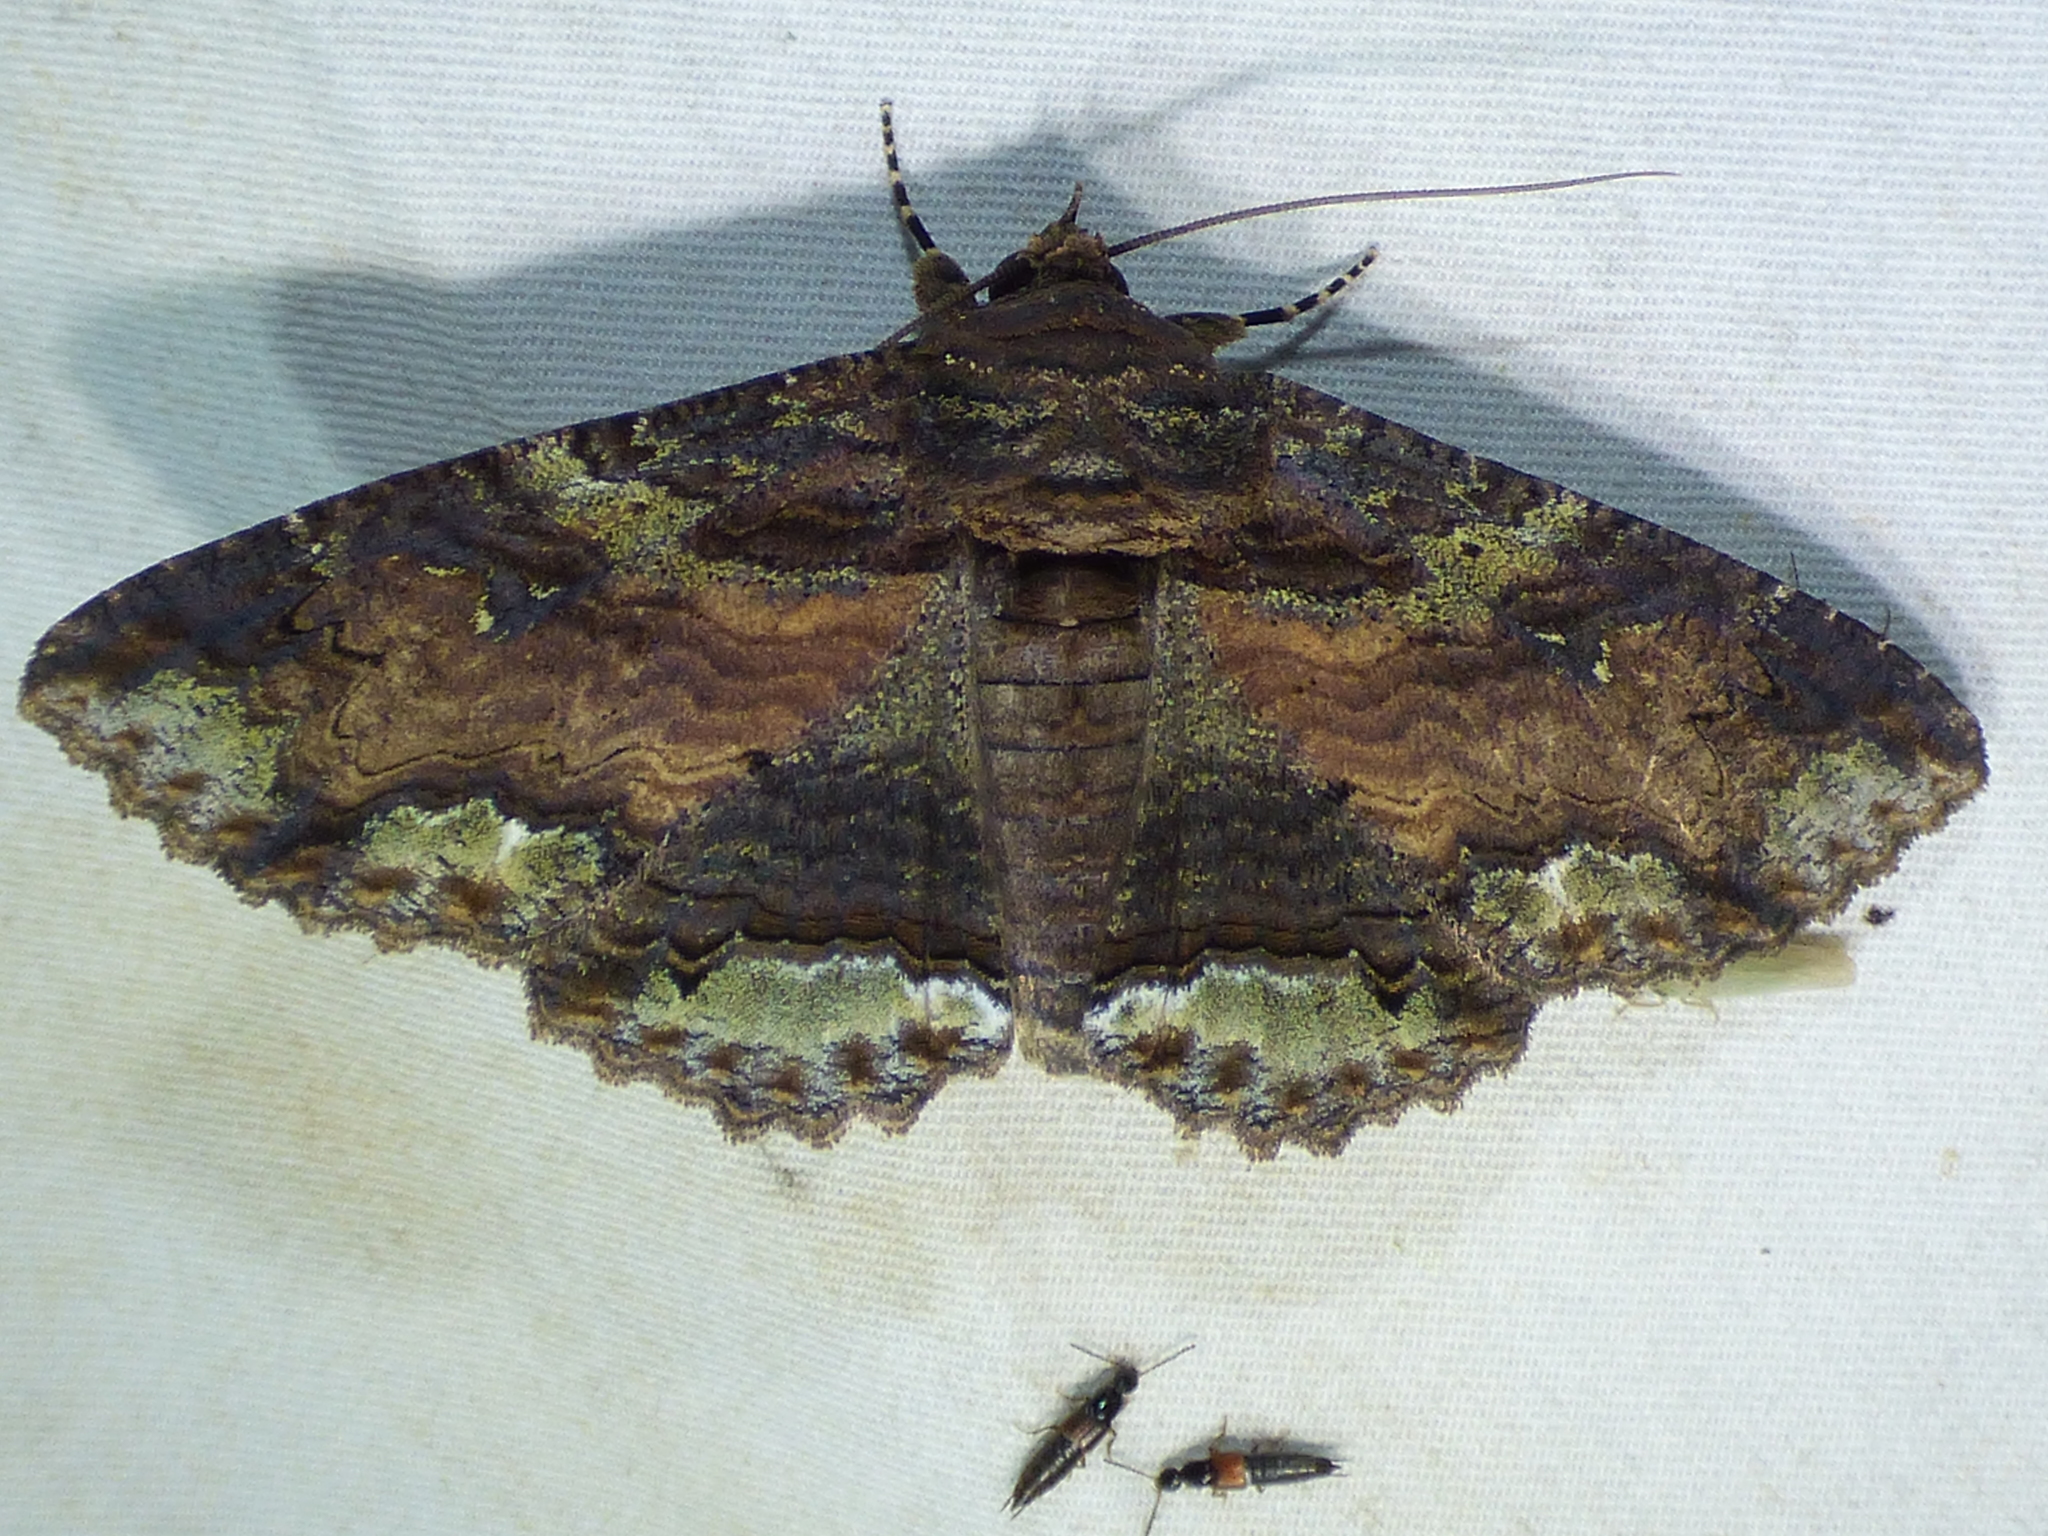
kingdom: Animalia
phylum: Arthropoda
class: Insecta
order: Lepidoptera
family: Erebidae
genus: Zale
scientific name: Zale lunata
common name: Lunate zale moth
